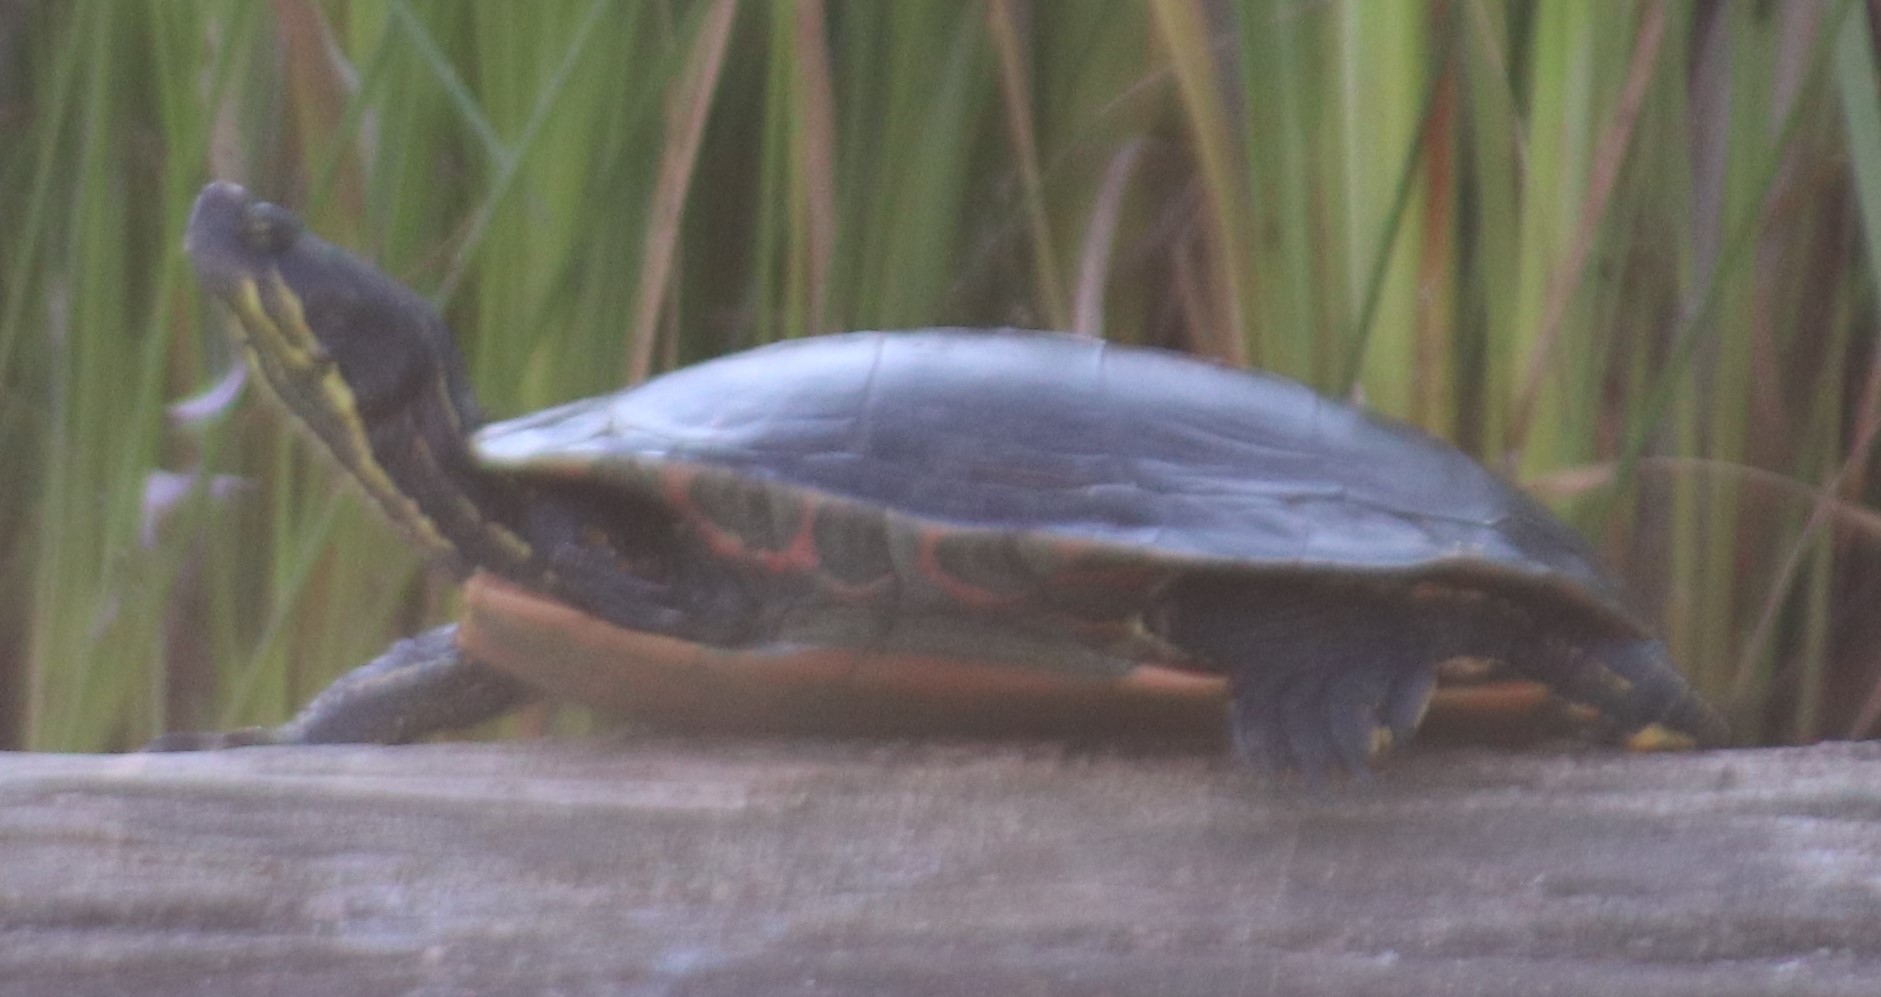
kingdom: Animalia
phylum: Chordata
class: Testudines
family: Emydidae
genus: Chrysemys
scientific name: Chrysemys picta
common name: Painted turtle
